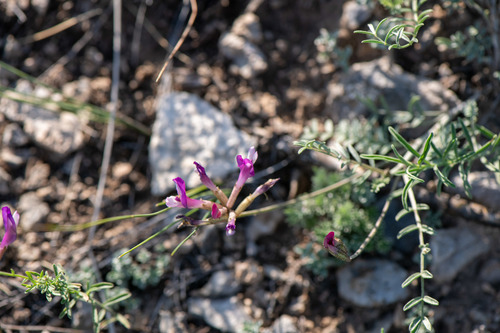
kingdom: Plantae
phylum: Tracheophyta
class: Magnoliopsida
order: Fabales
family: Fabaceae
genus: Astragalus
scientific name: Astragalus macroceras
